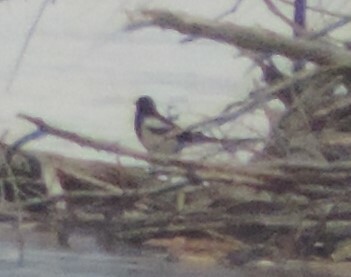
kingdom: Animalia
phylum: Chordata
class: Aves
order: Passeriformes
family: Corvidae
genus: Pica
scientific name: Pica hudsonia
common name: Black-billed magpie
